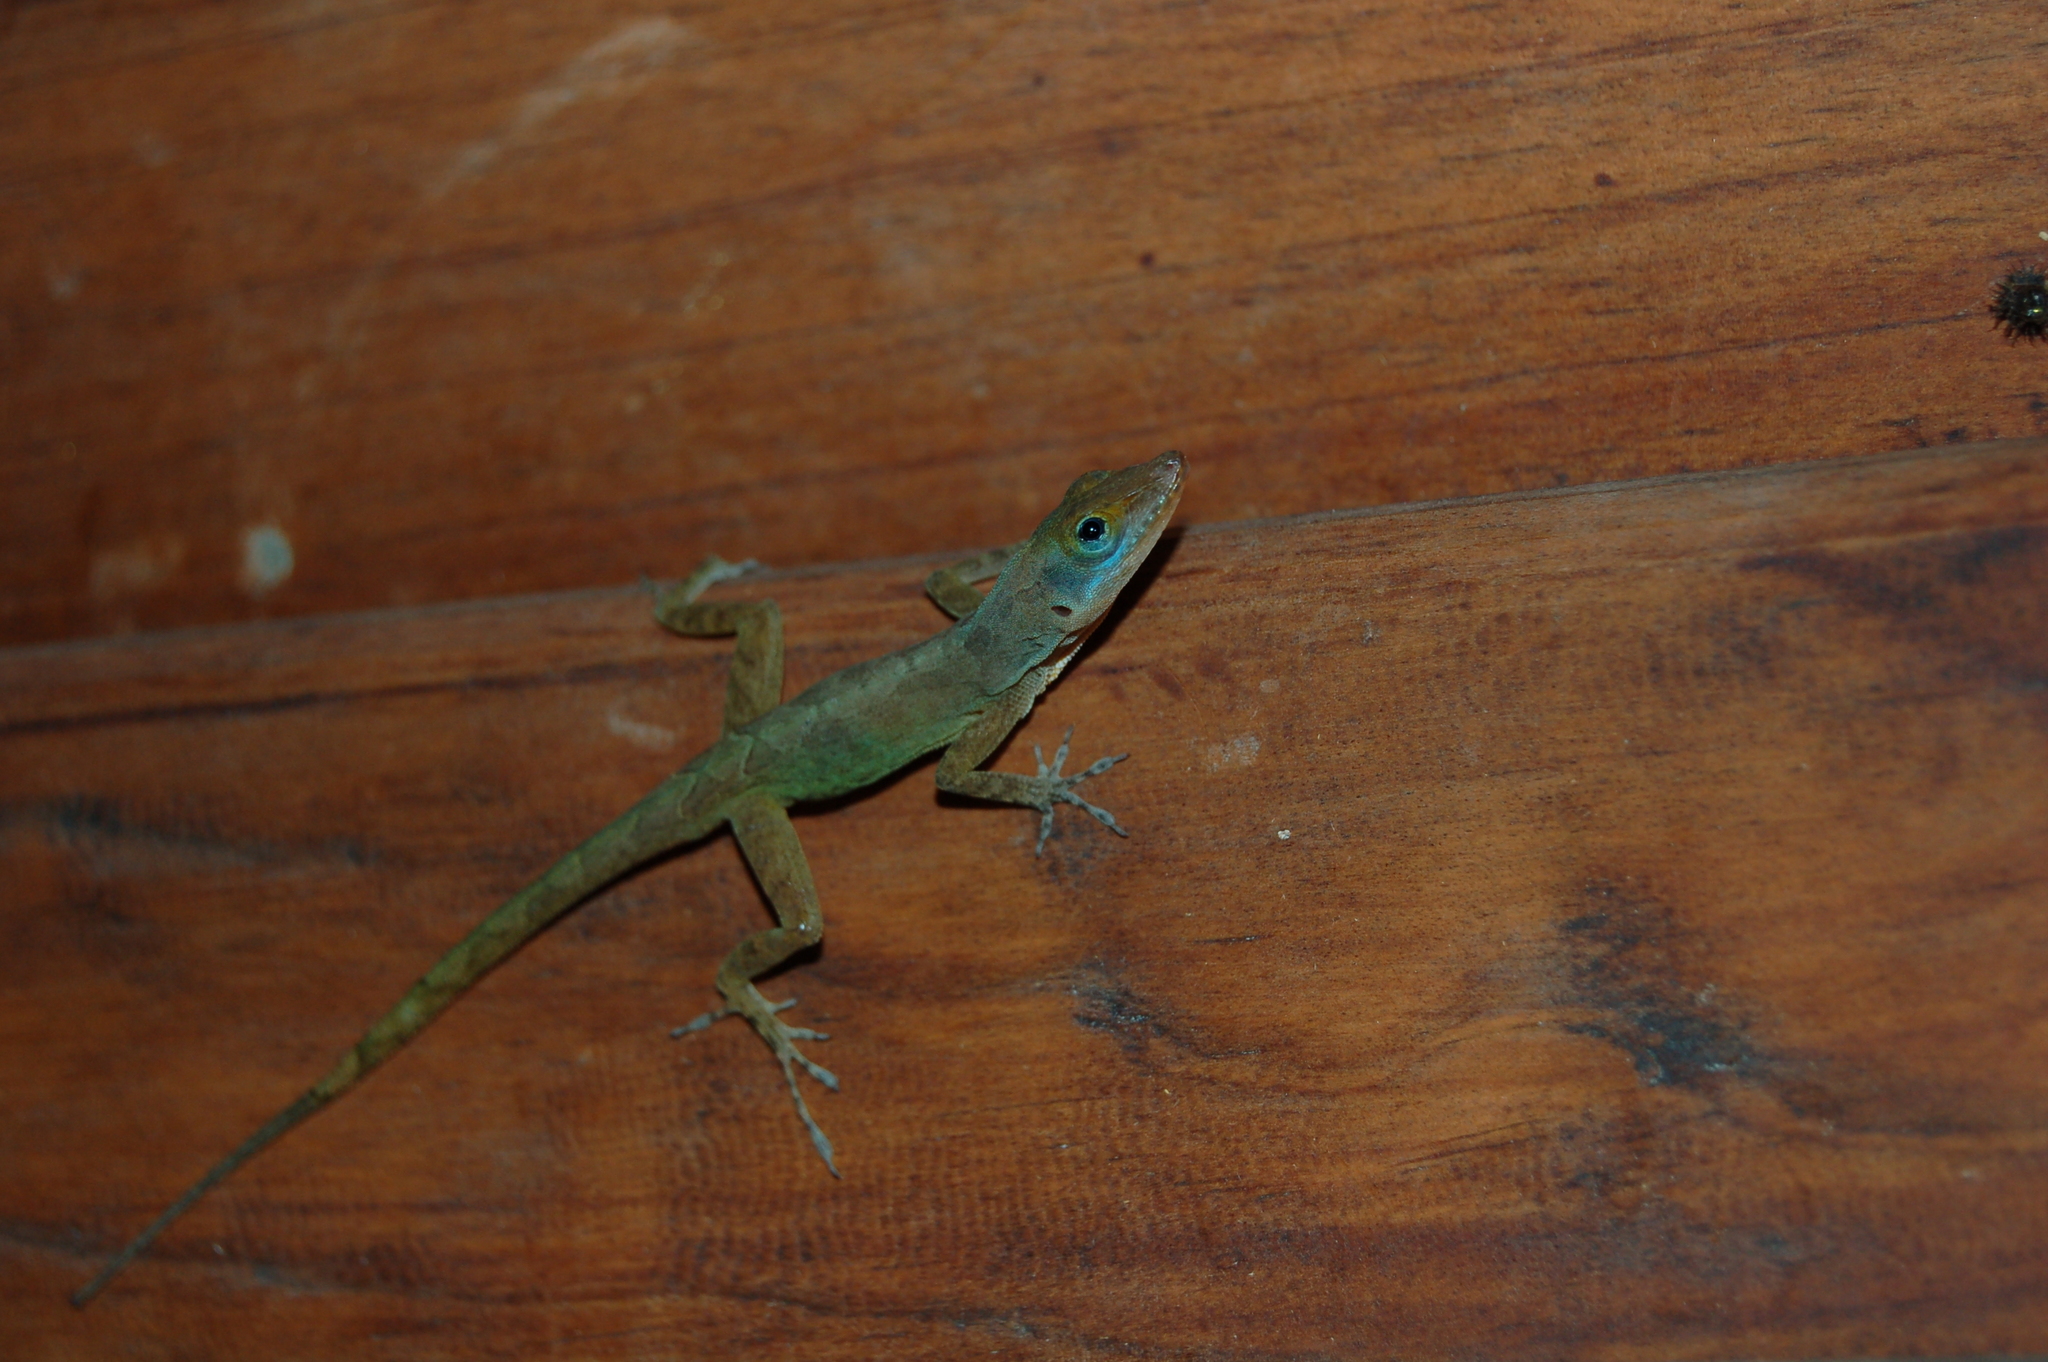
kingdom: Animalia
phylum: Chordata
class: Squamata
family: Dactyloidae
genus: Anolis
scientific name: Anolis luciae
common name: St. lucia anole
